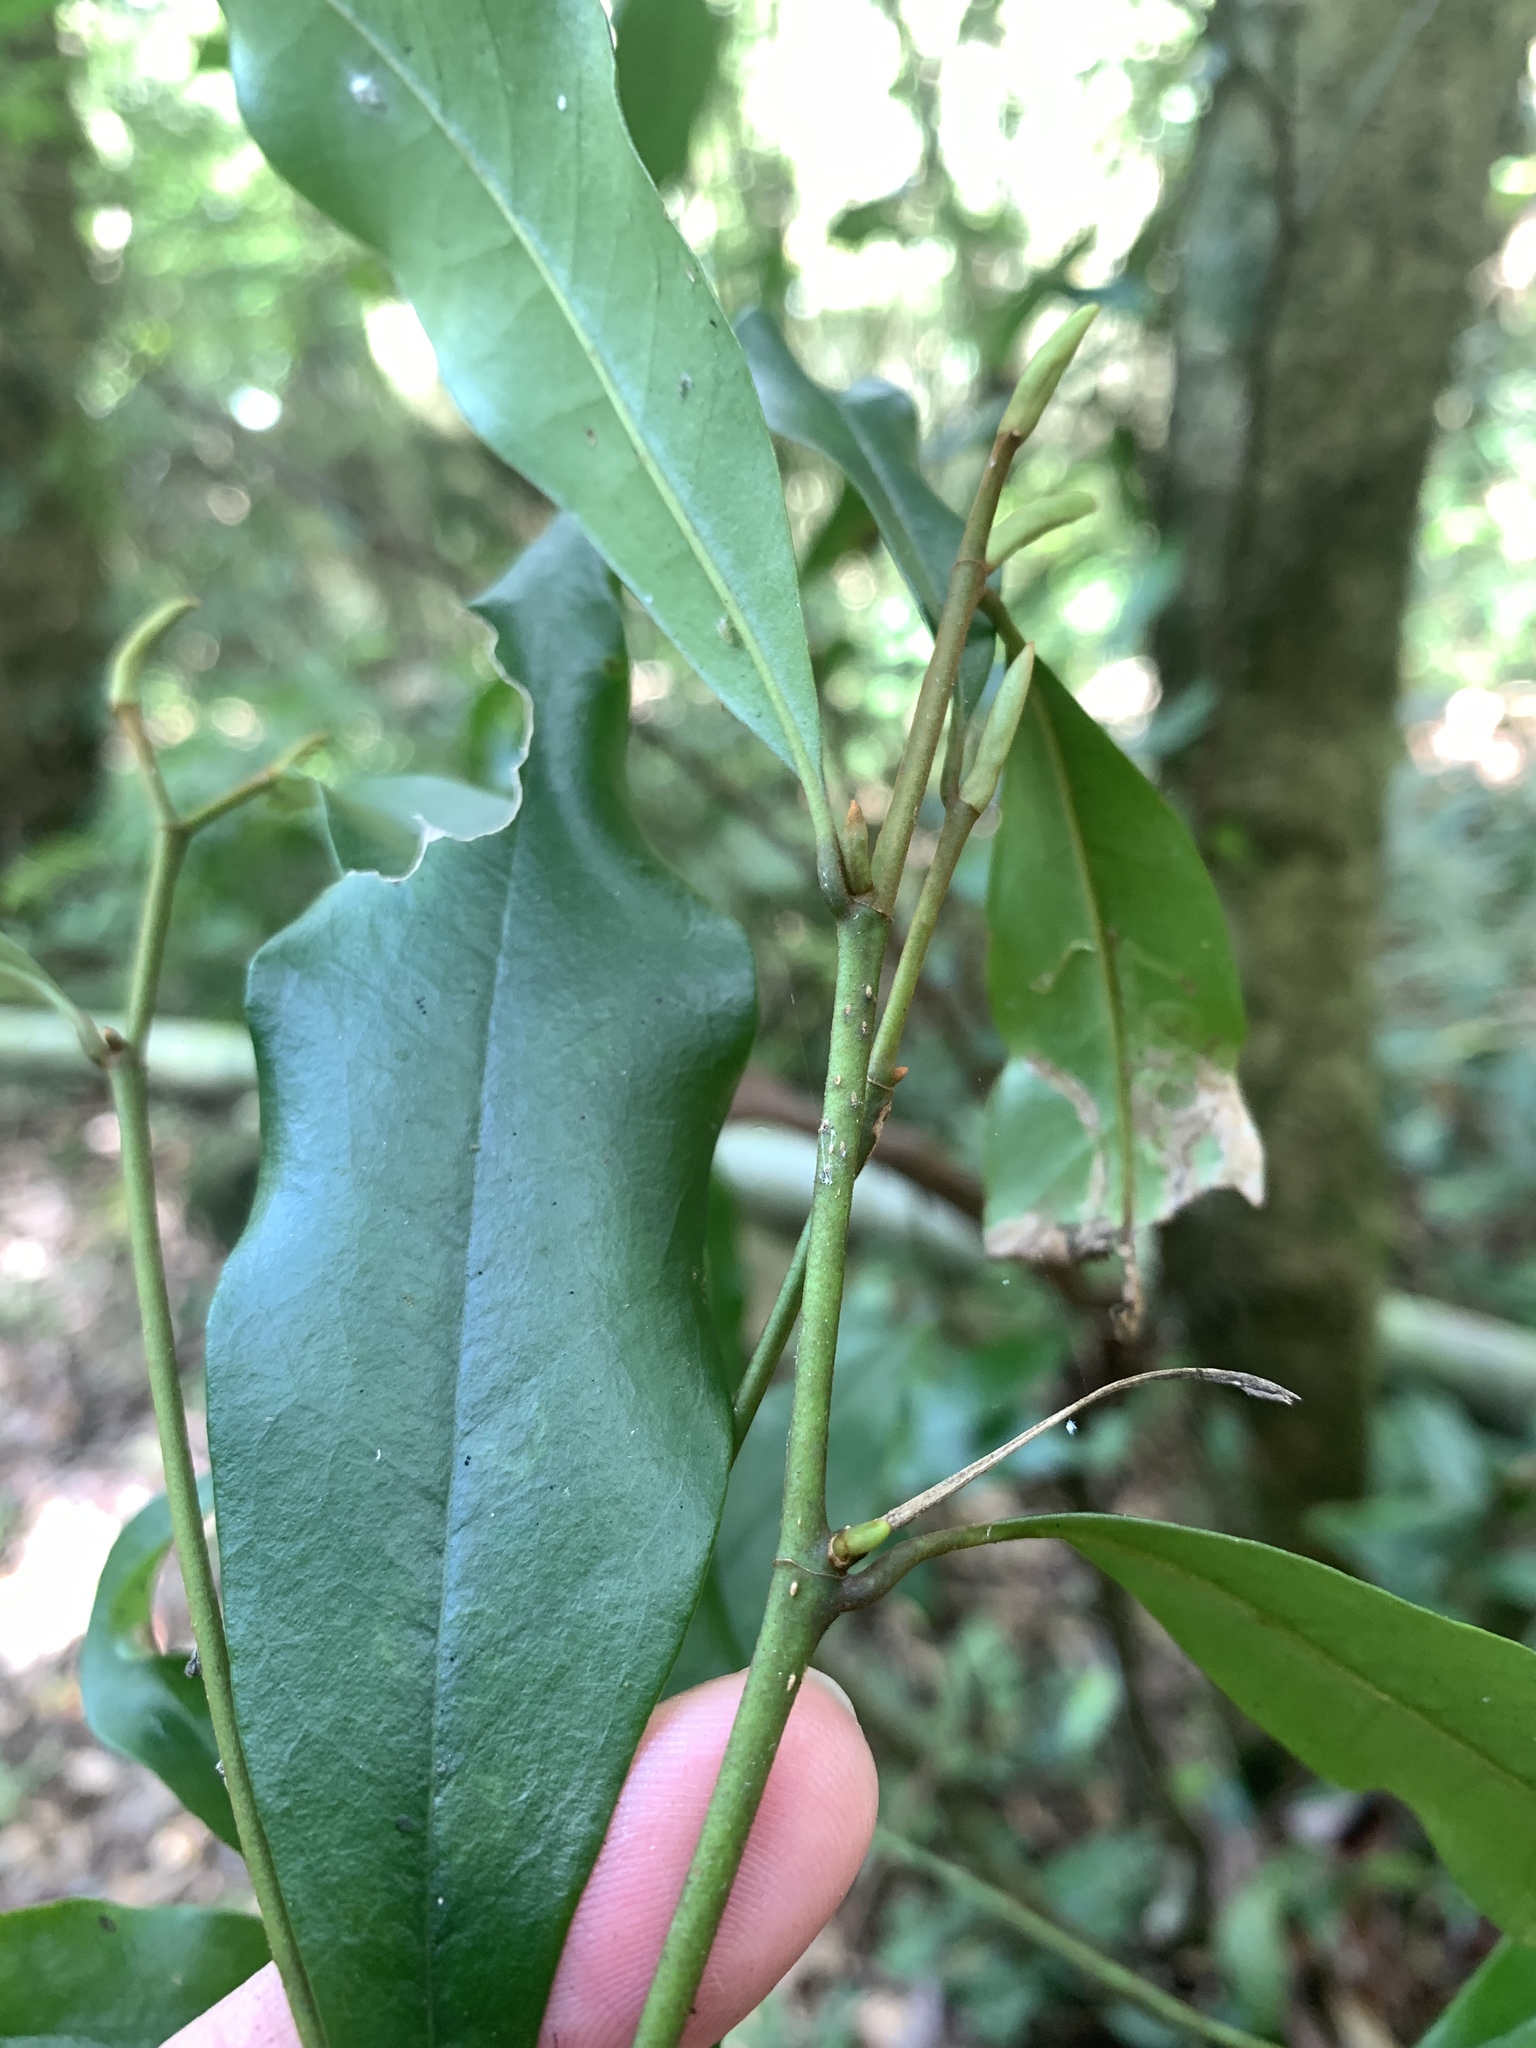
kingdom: Plantae
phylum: Tracheophyta
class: Magnoliopsida
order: Magnoliales
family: Magnoliaceae
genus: Magnolia
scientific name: Magnolia compressa
